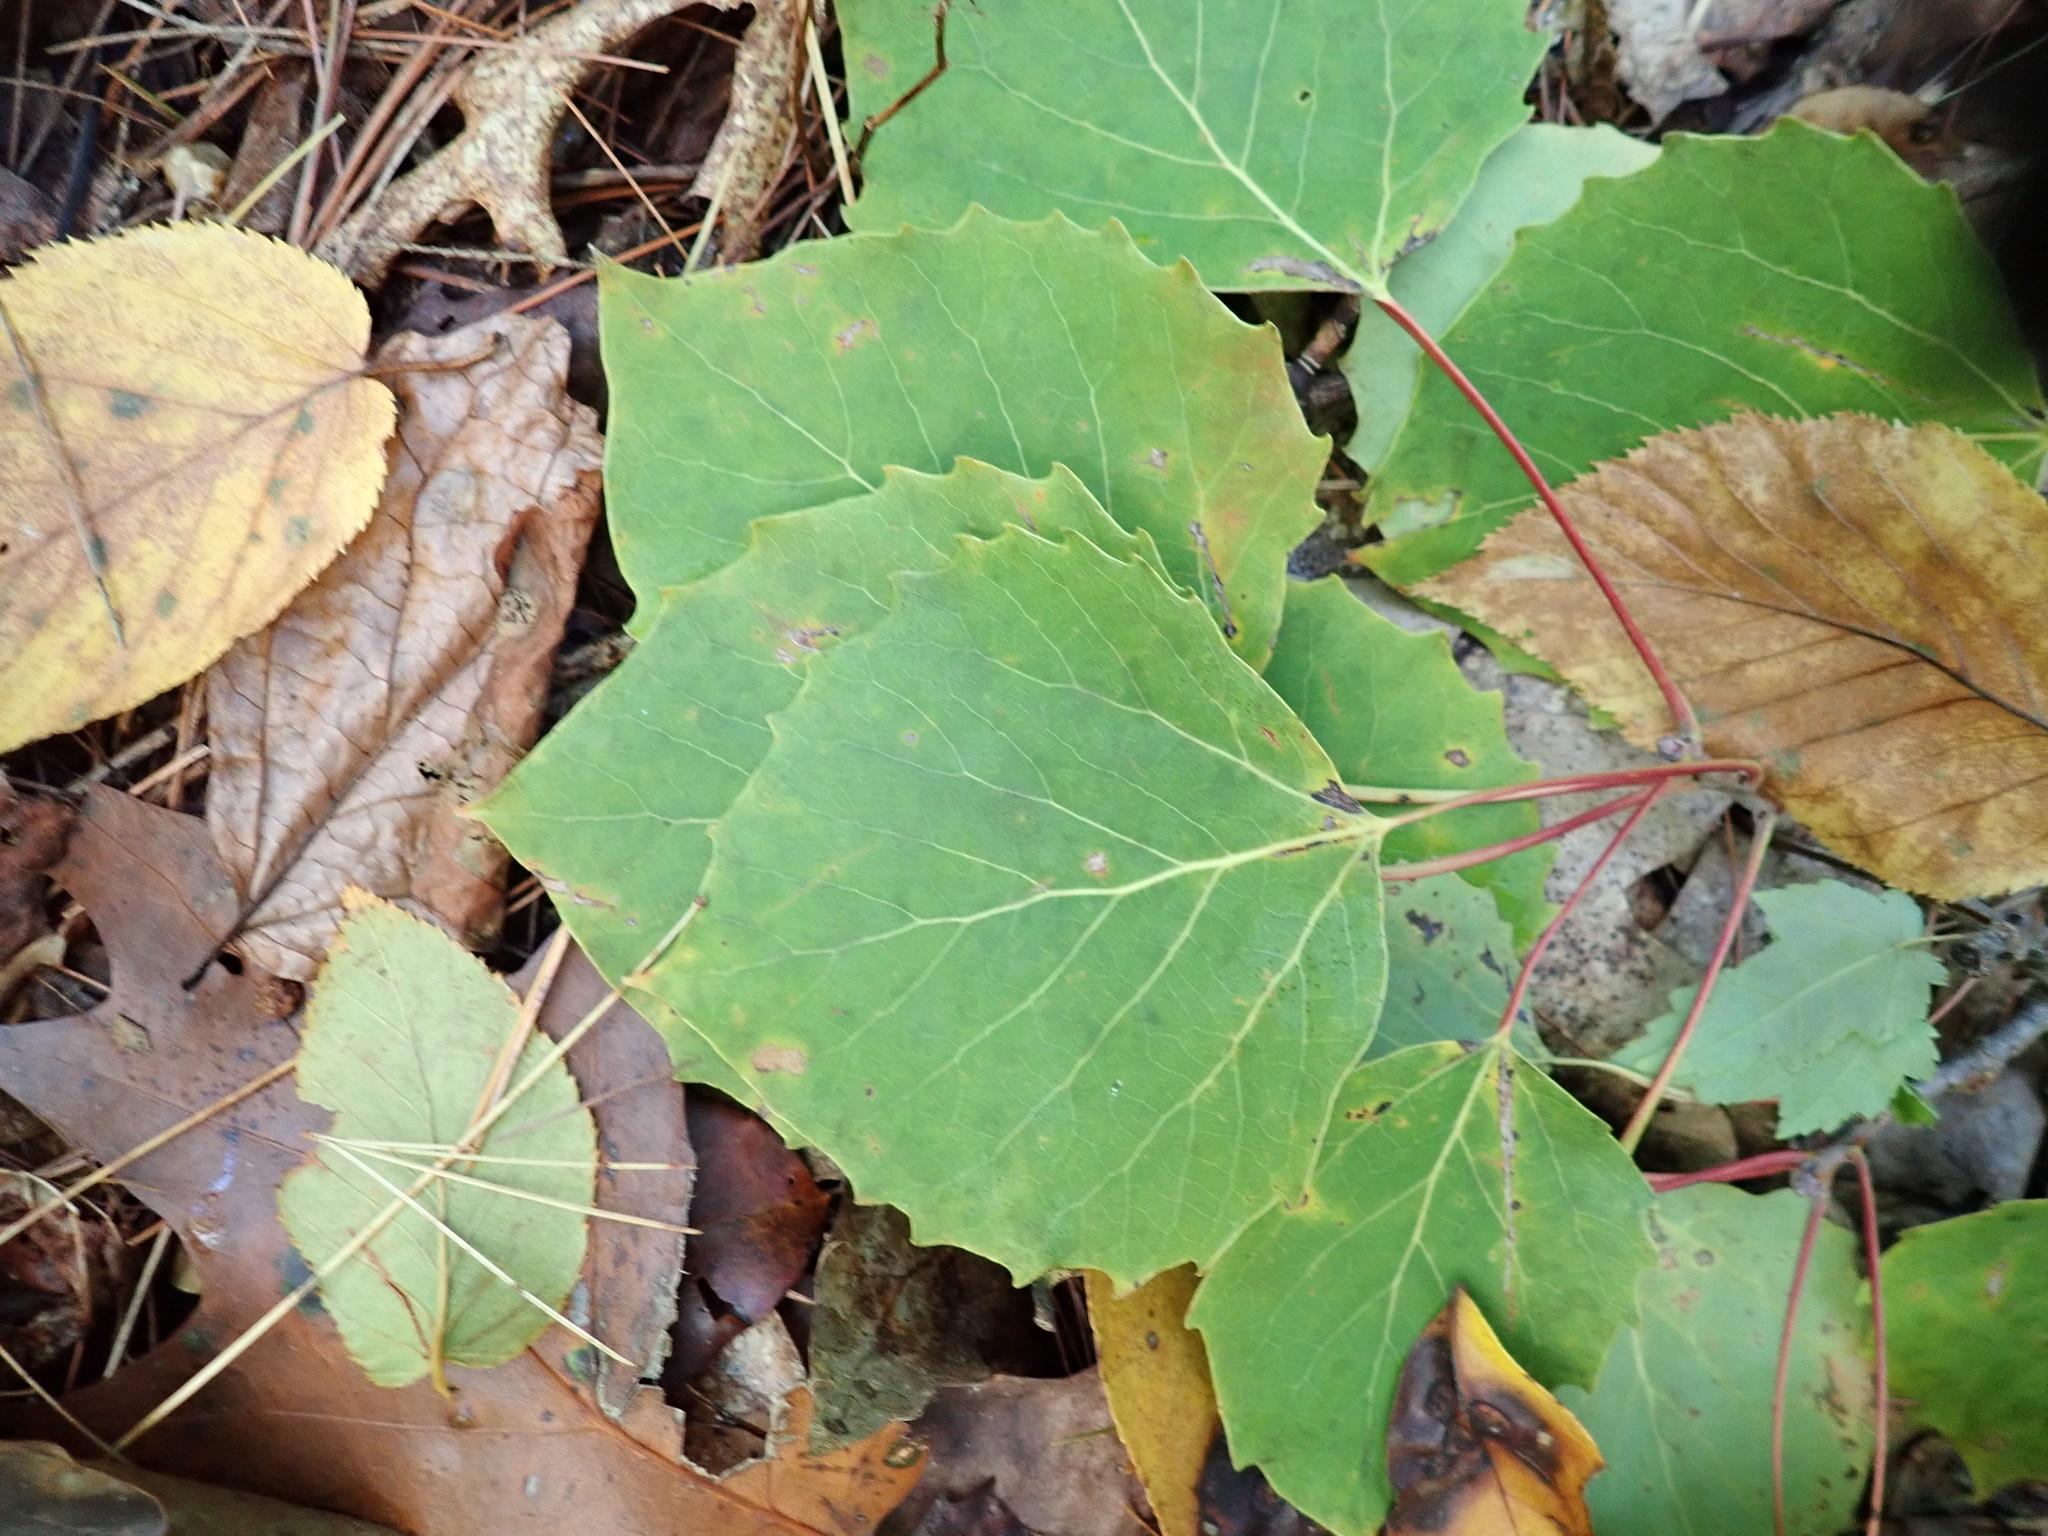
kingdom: Plantae
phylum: Tracheophyta
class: Magnoliopsida
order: Malpighiales
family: Salicaceae
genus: Populus
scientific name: Populus grandidentata
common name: Bigtooth aspen
